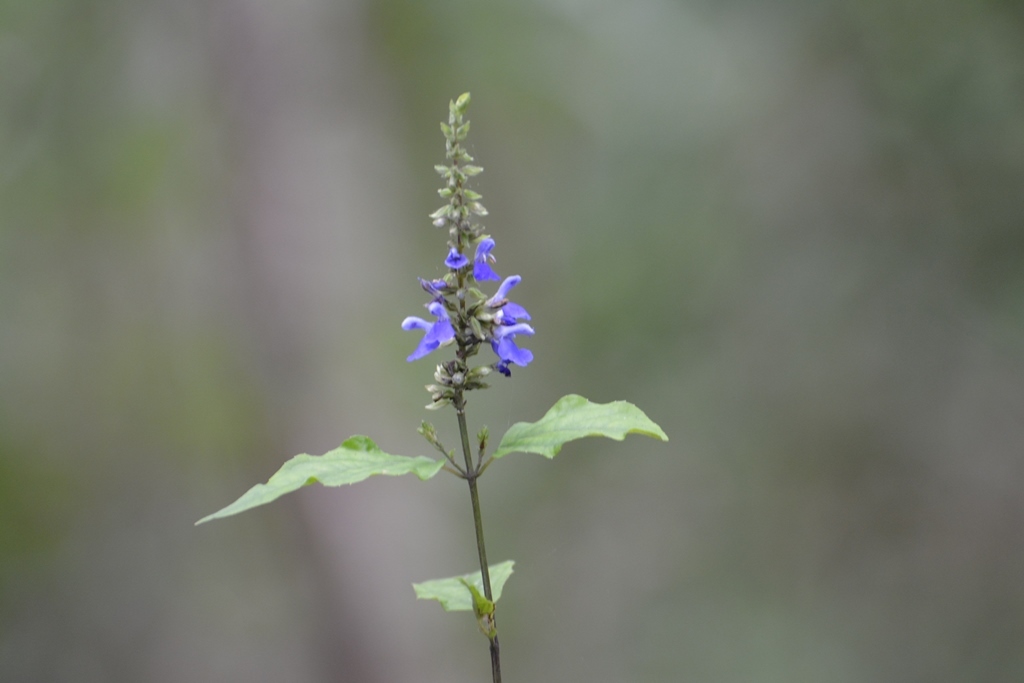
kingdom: Plantae
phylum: Tracheophyta
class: Magnoliopsida
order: Lamiales
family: Lamiaceae
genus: Salvia
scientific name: Salvia connivens
